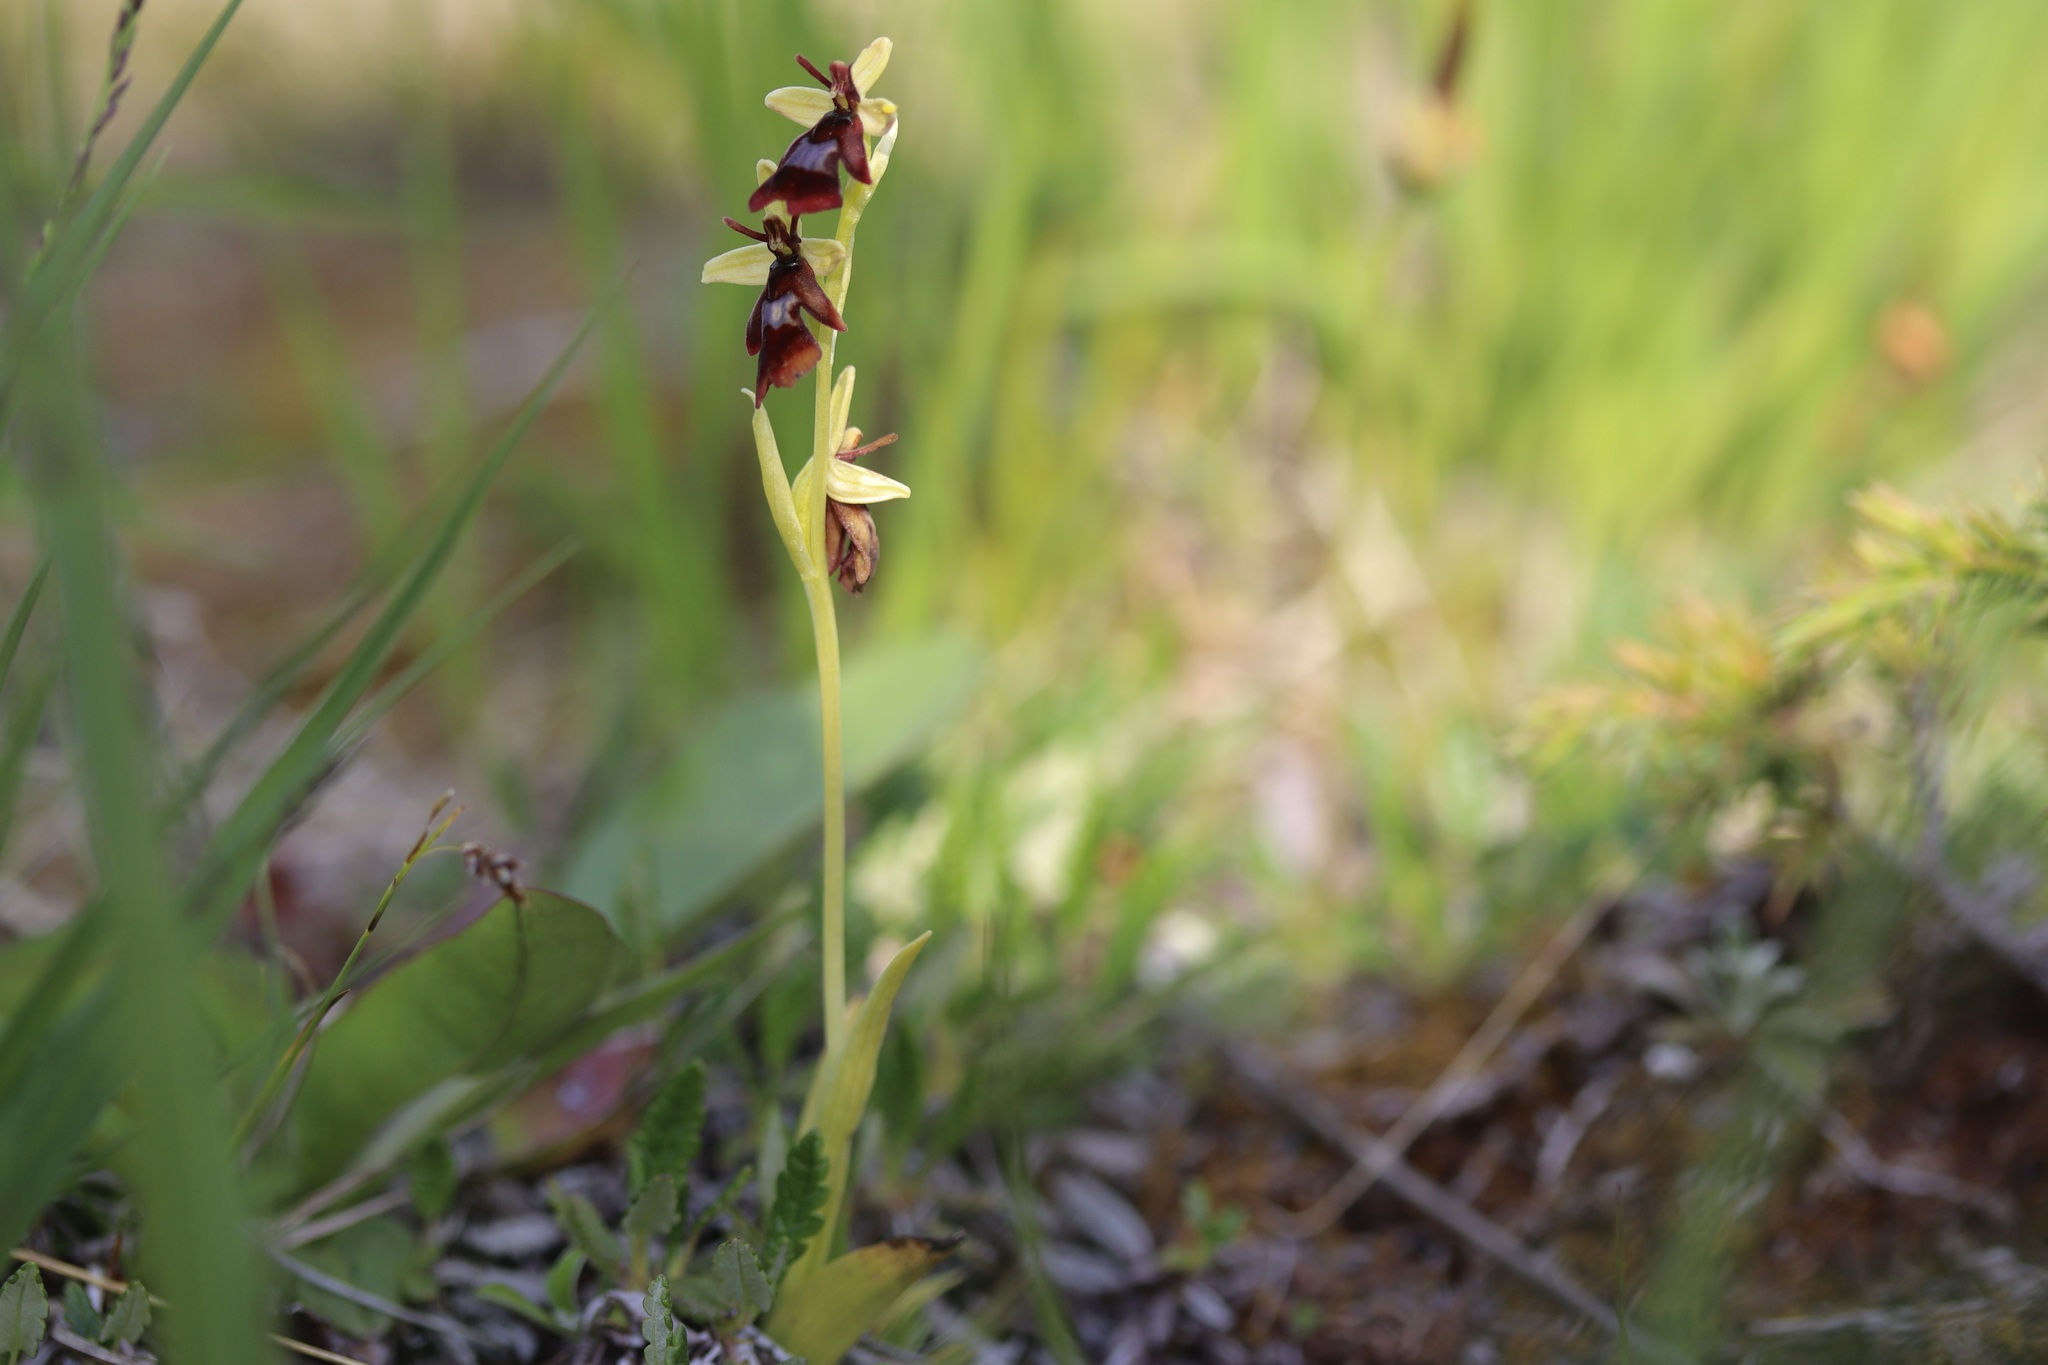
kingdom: Plantae
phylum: Tracheophyta
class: Liliopsida
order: Asparagales
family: Orchidaceae
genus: Ophrys
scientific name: Ophrys insectifera
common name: Fly orchid
